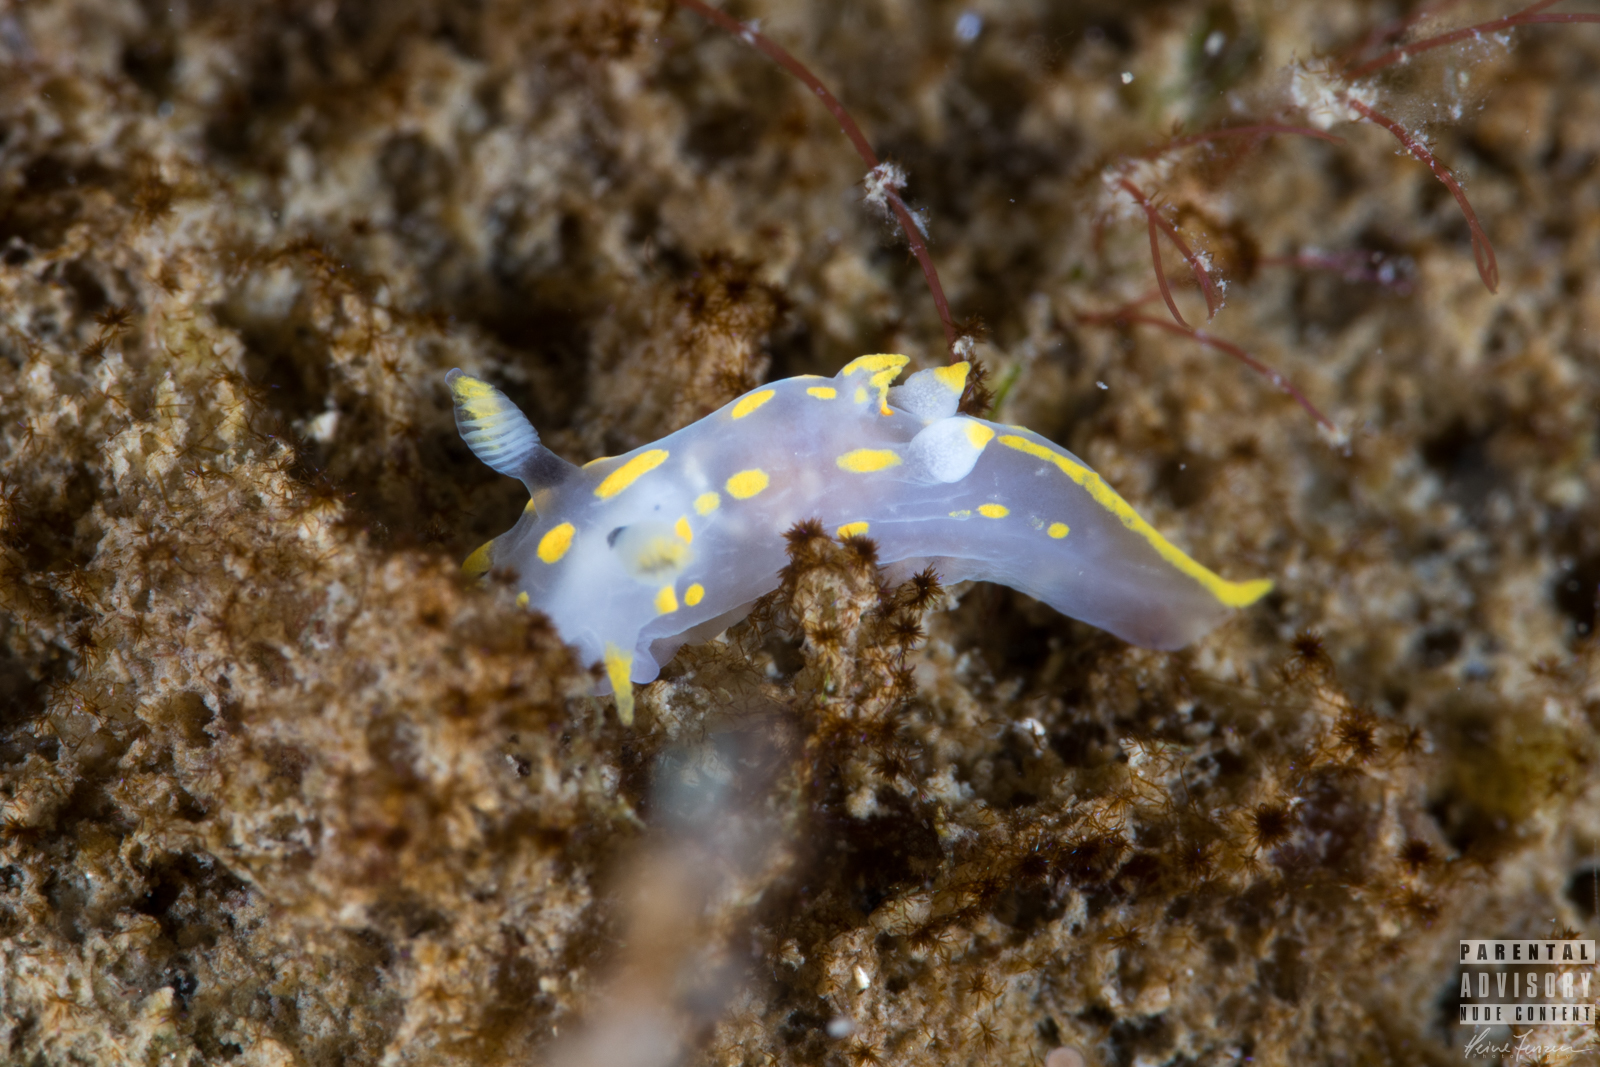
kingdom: Animalia
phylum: Mollusca
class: Gastropoda
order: Nudibranchia
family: Polyceridae
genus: Polycera
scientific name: Polycera quadrilineata
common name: Four-striped polycera
